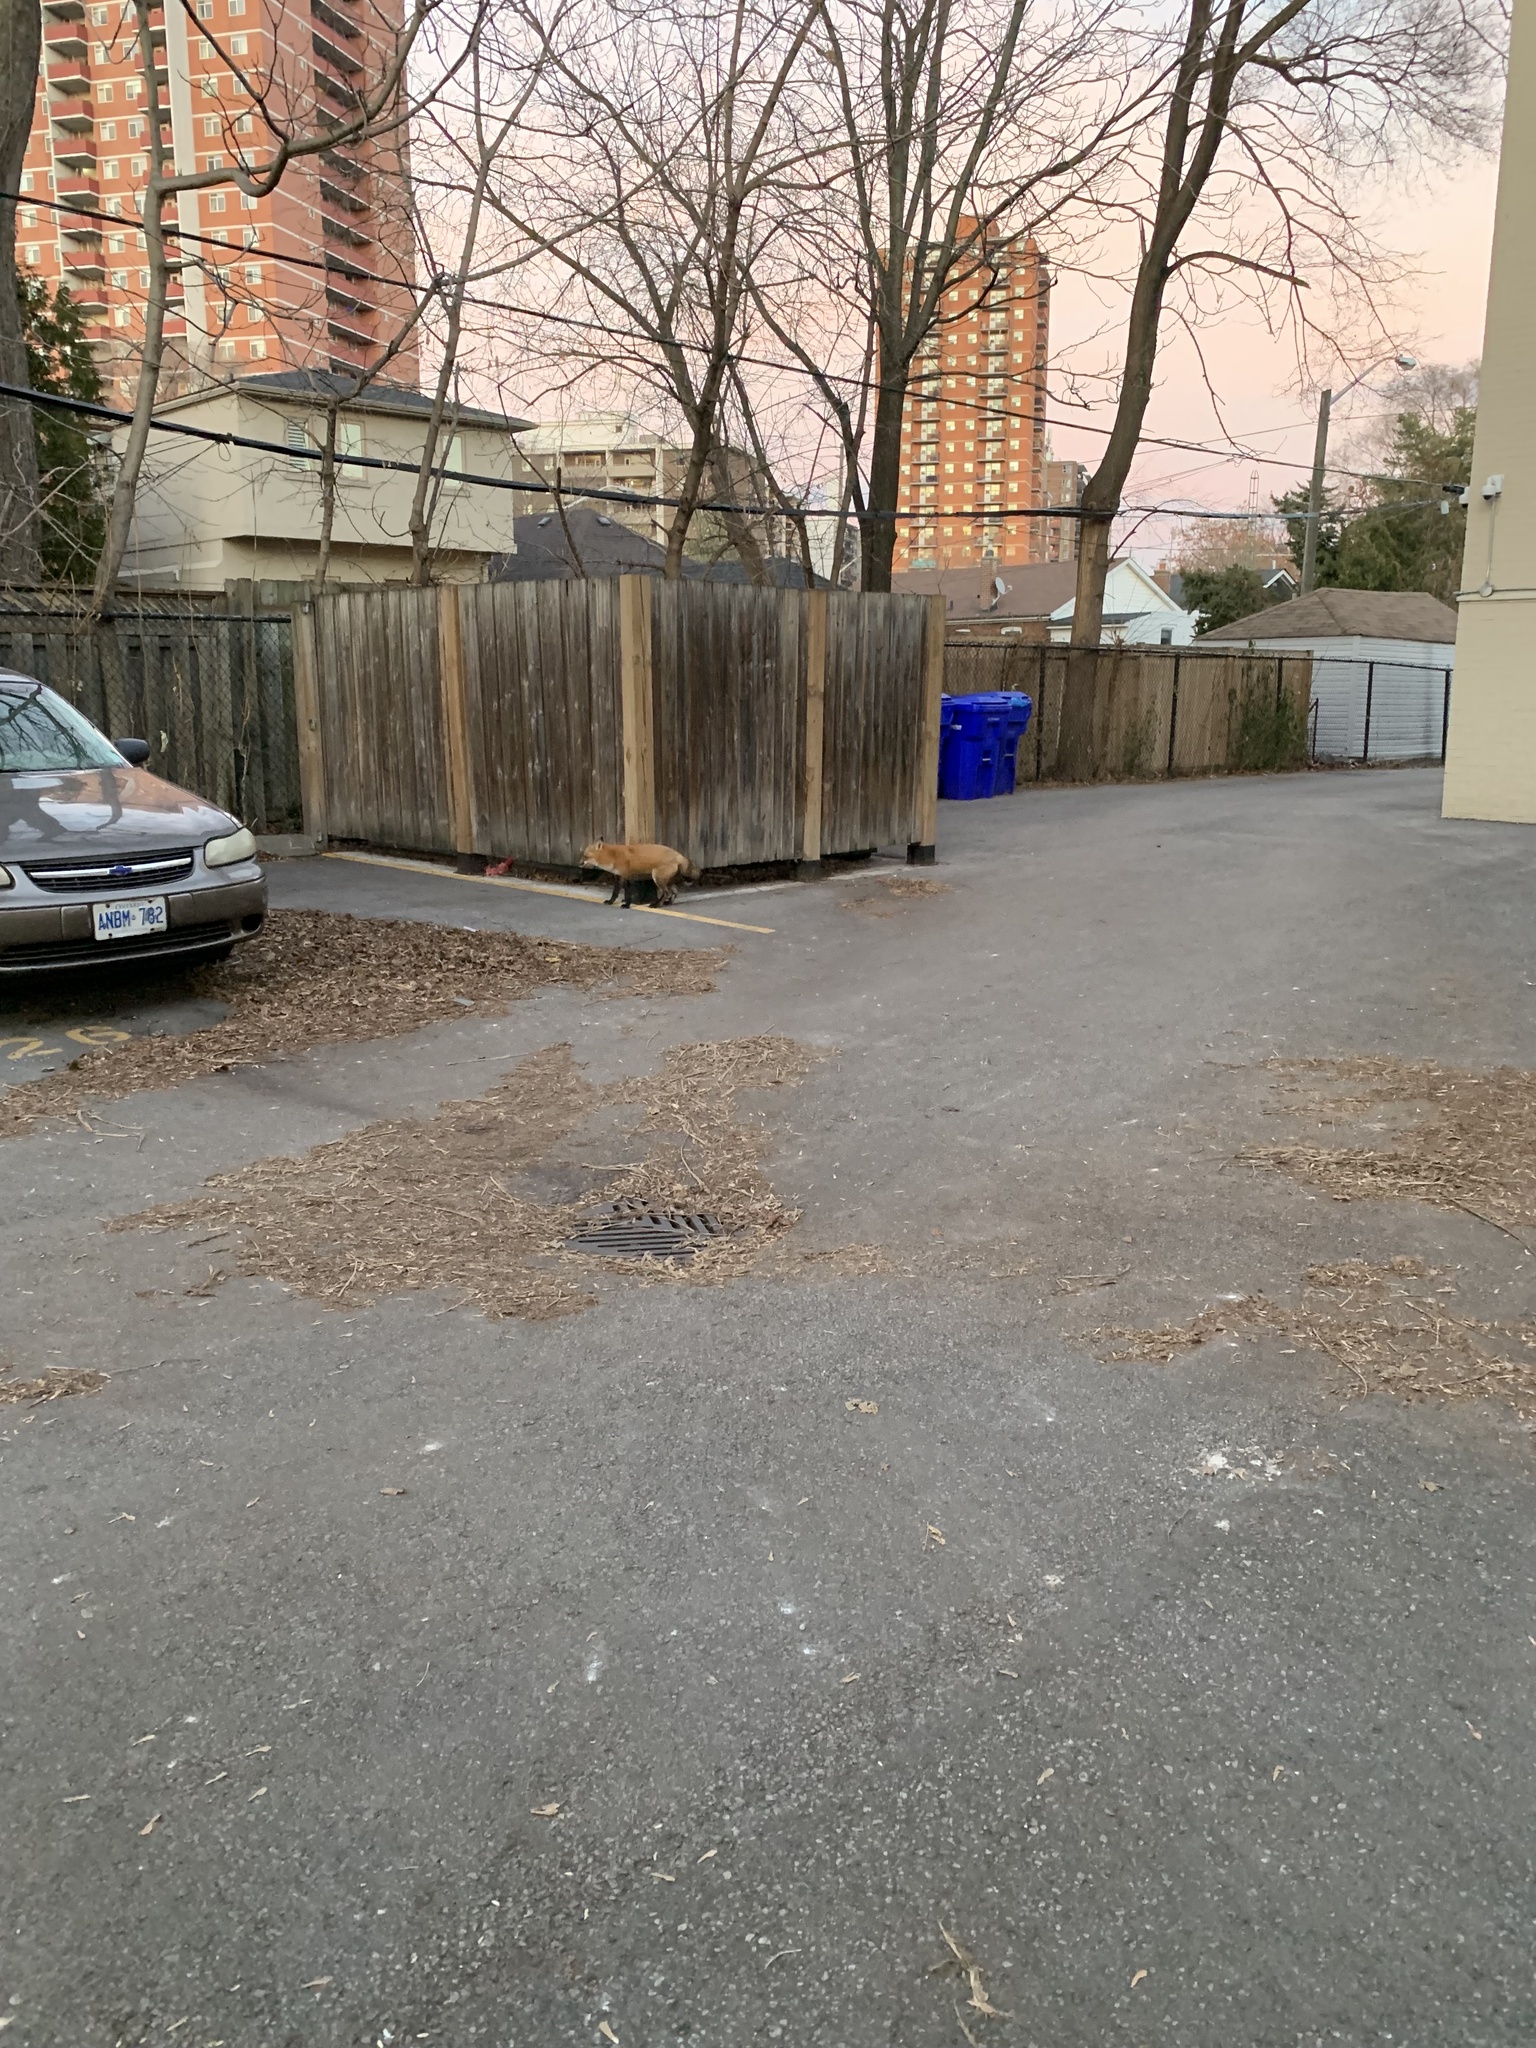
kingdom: Animalia
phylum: Chordata
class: Mammalia
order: Carnivora
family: Canidae
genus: Vulpes
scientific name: Vulpes vulpes
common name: Red fox
